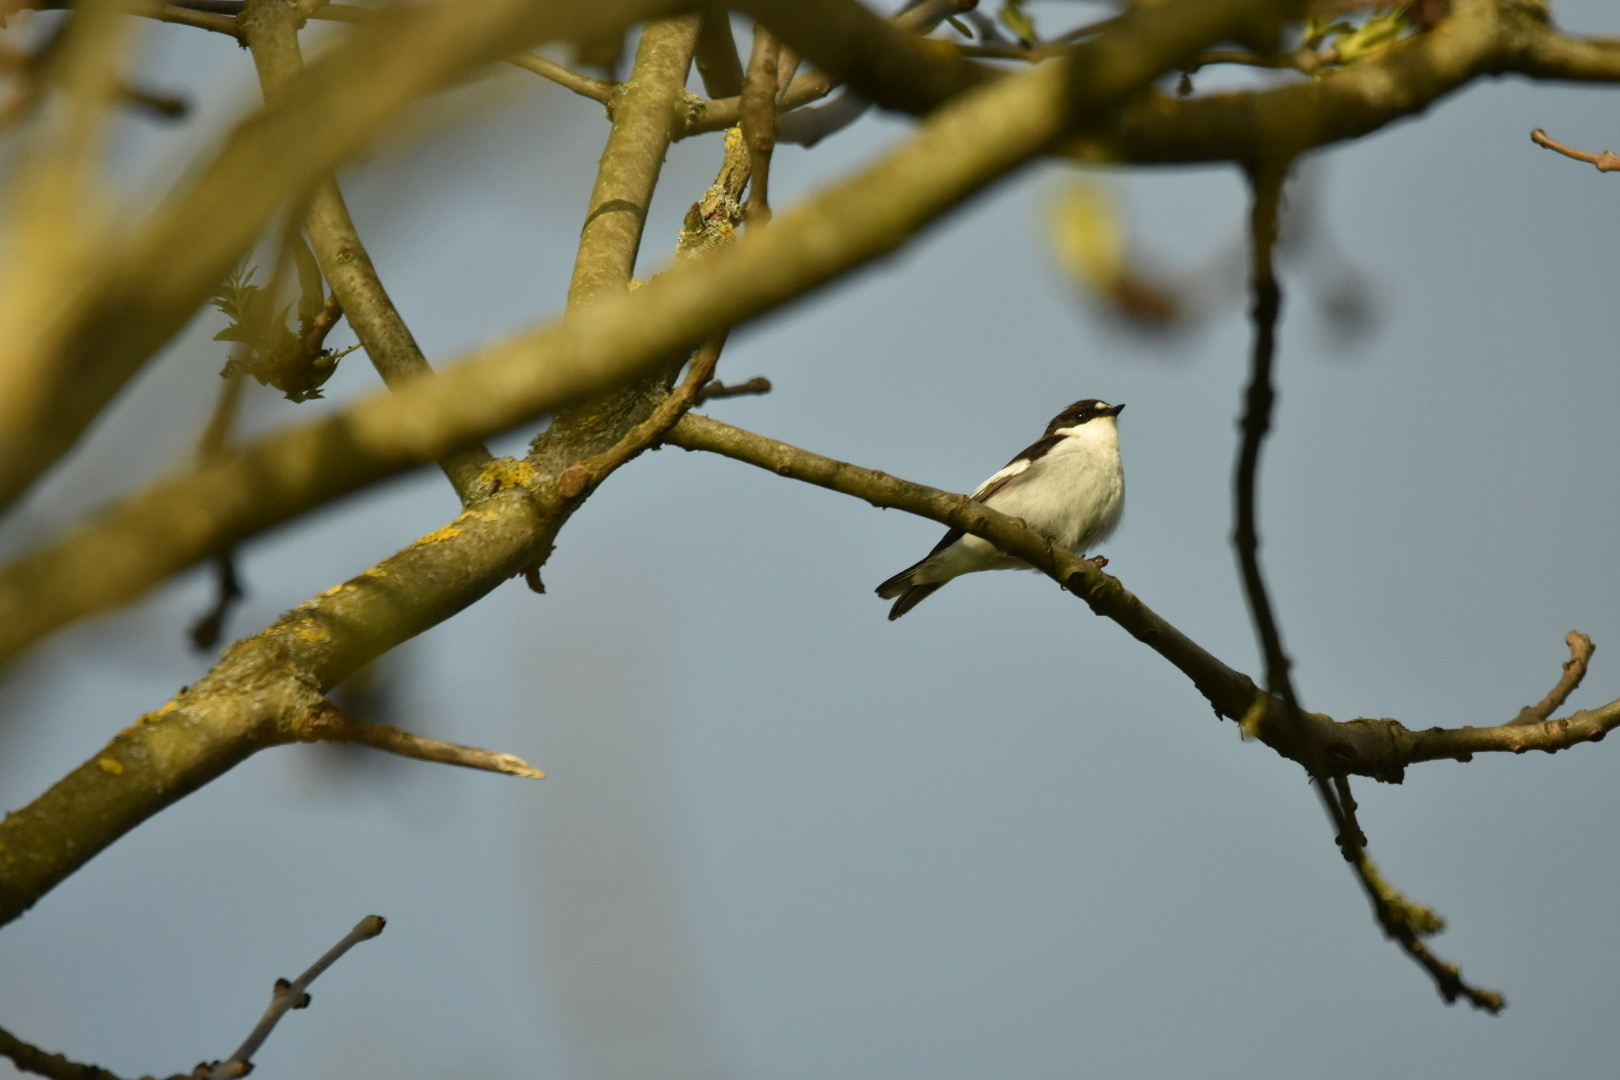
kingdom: Animalia
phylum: Chordata
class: Aves
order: Passeriformes
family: Muscicapidae
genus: Ficedula
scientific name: Ficedula hypoleuca
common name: European pied flycatcher
